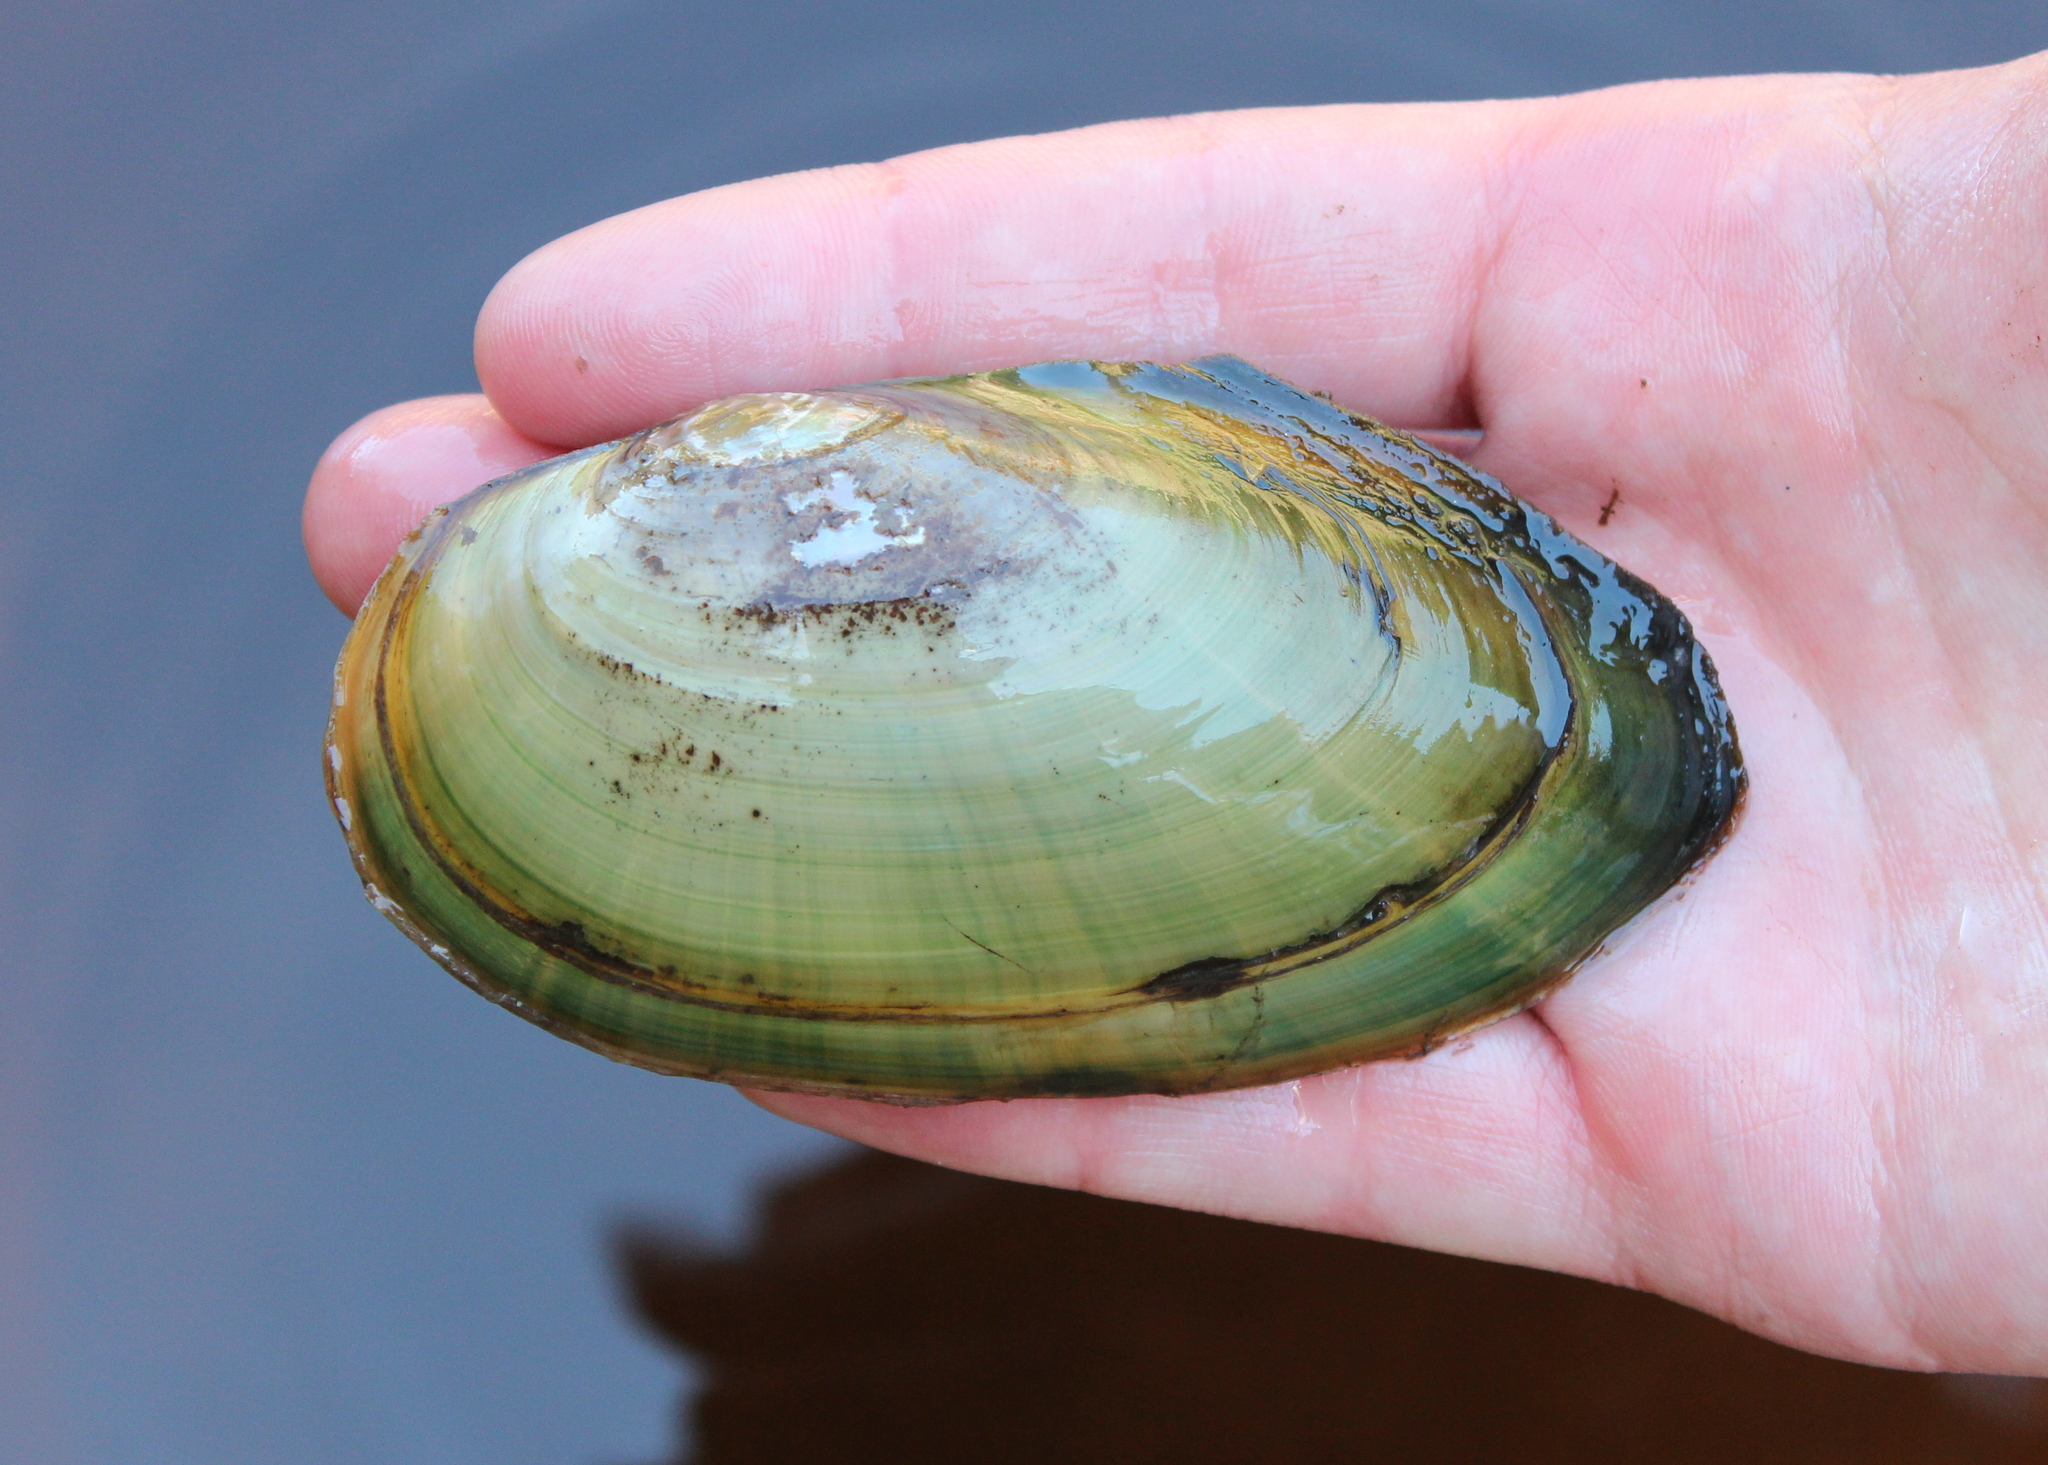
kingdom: Animalia
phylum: Mollusca
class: Bivalvia
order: Unionida
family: Unionidae
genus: Pyganodon
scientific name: Pyganodon cataracta
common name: Eastern floater
